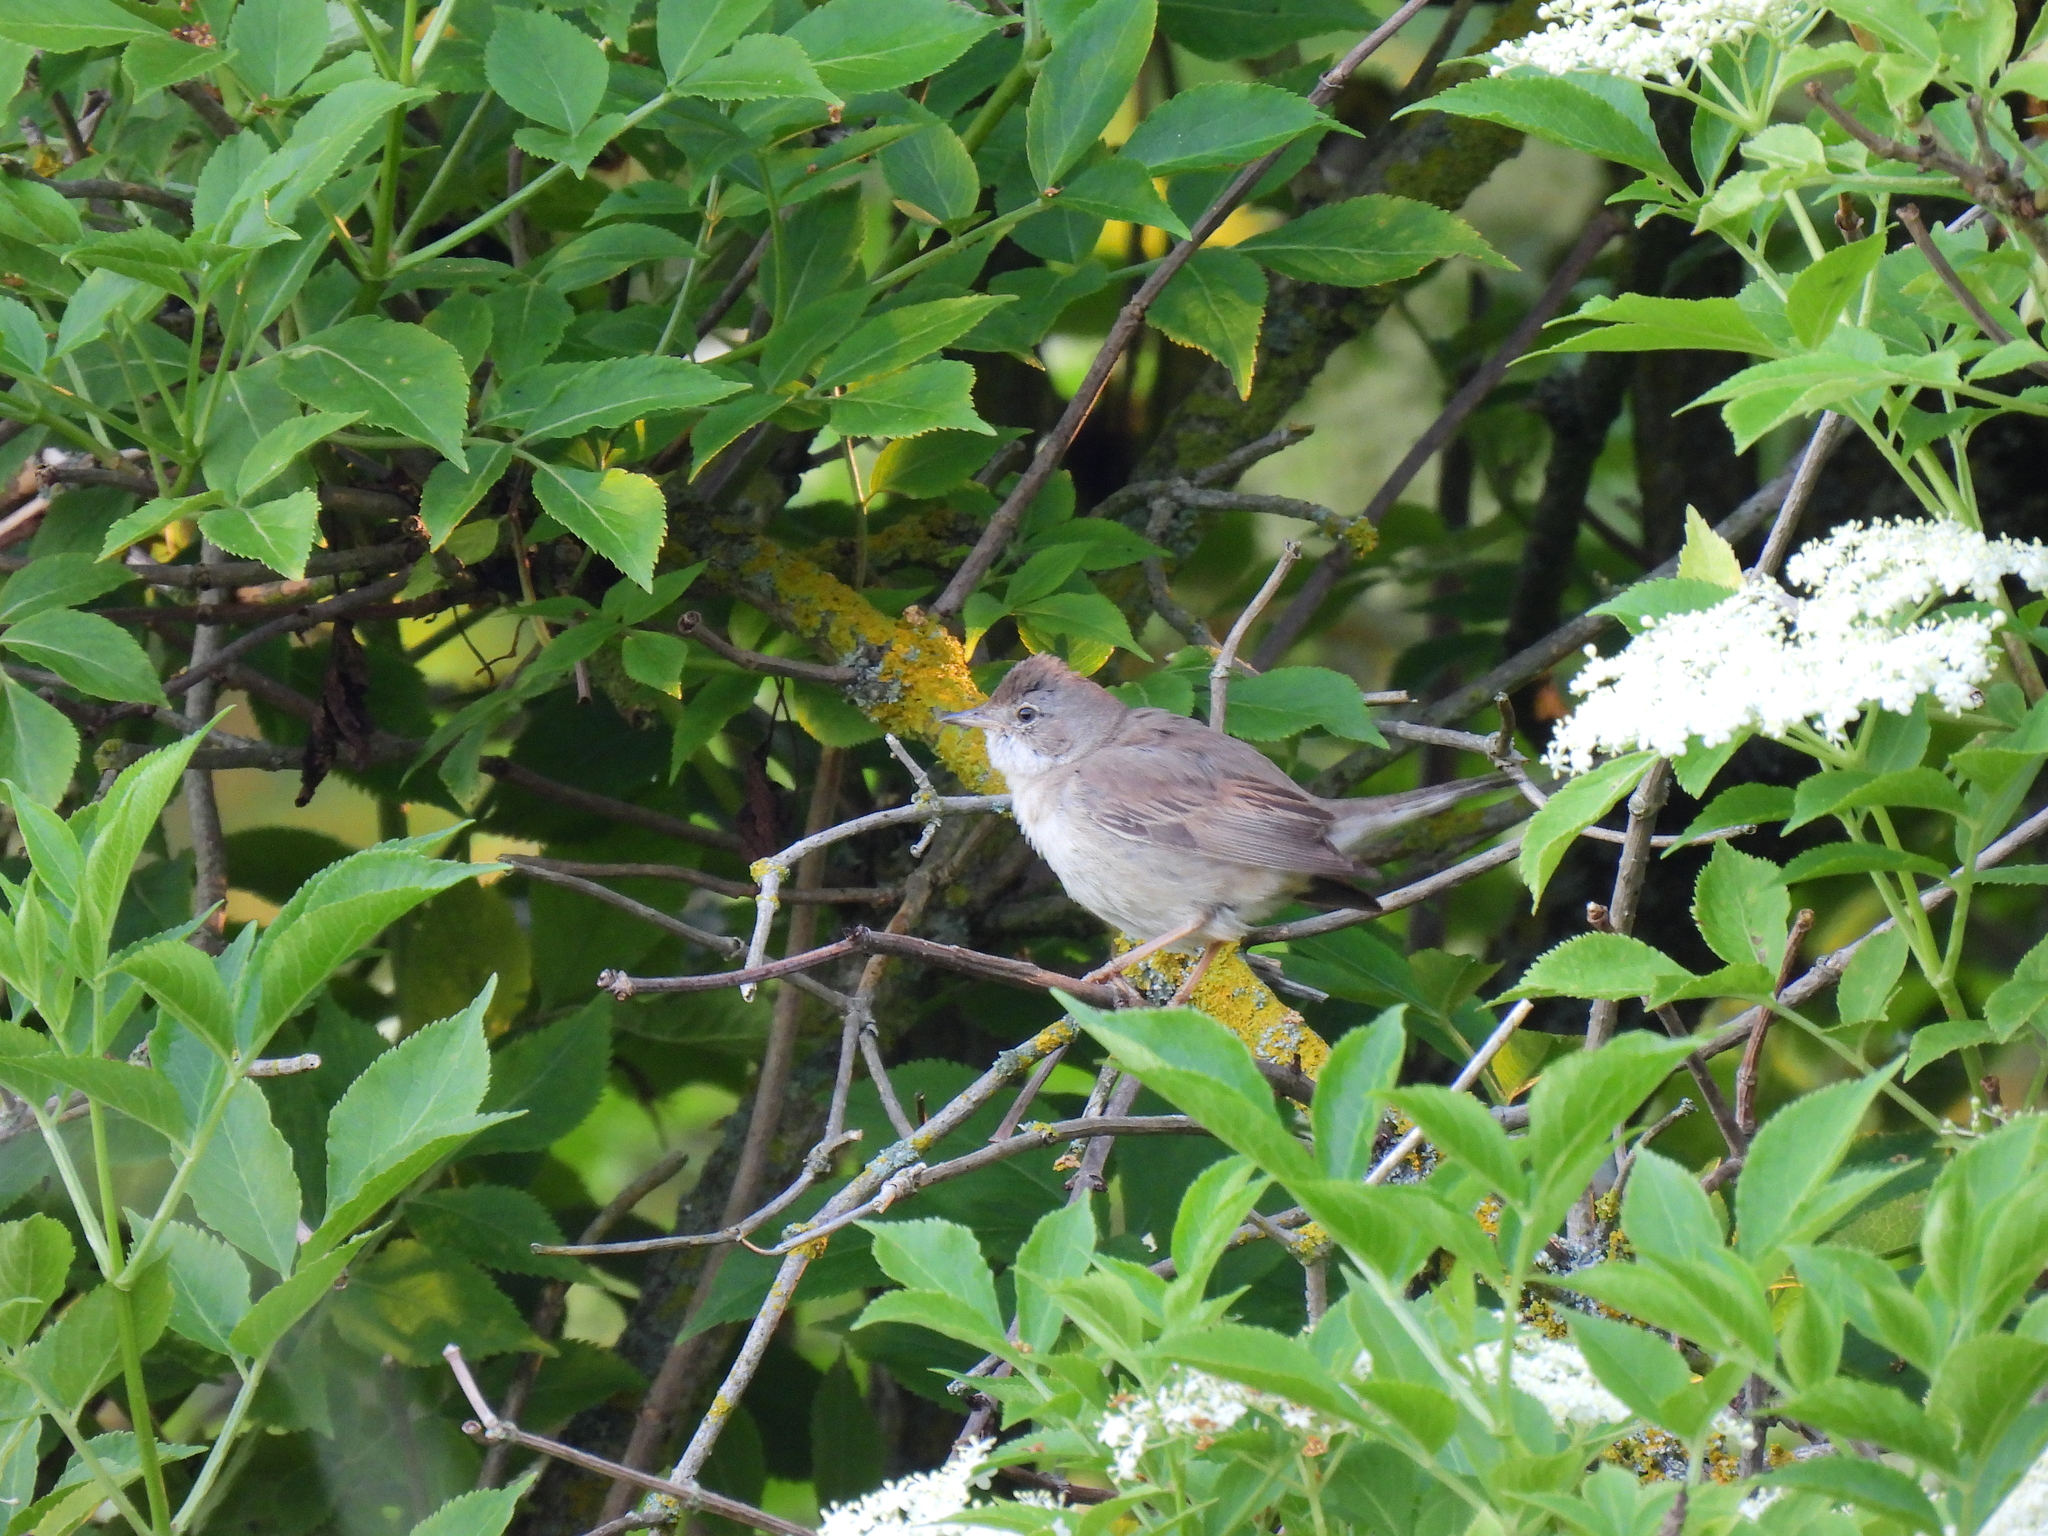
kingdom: Animalia
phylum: Chordata
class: Aves
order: Passeriformes
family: Sylviidae
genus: Sylvia
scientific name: Sylvia communis
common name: Common whitethroat
